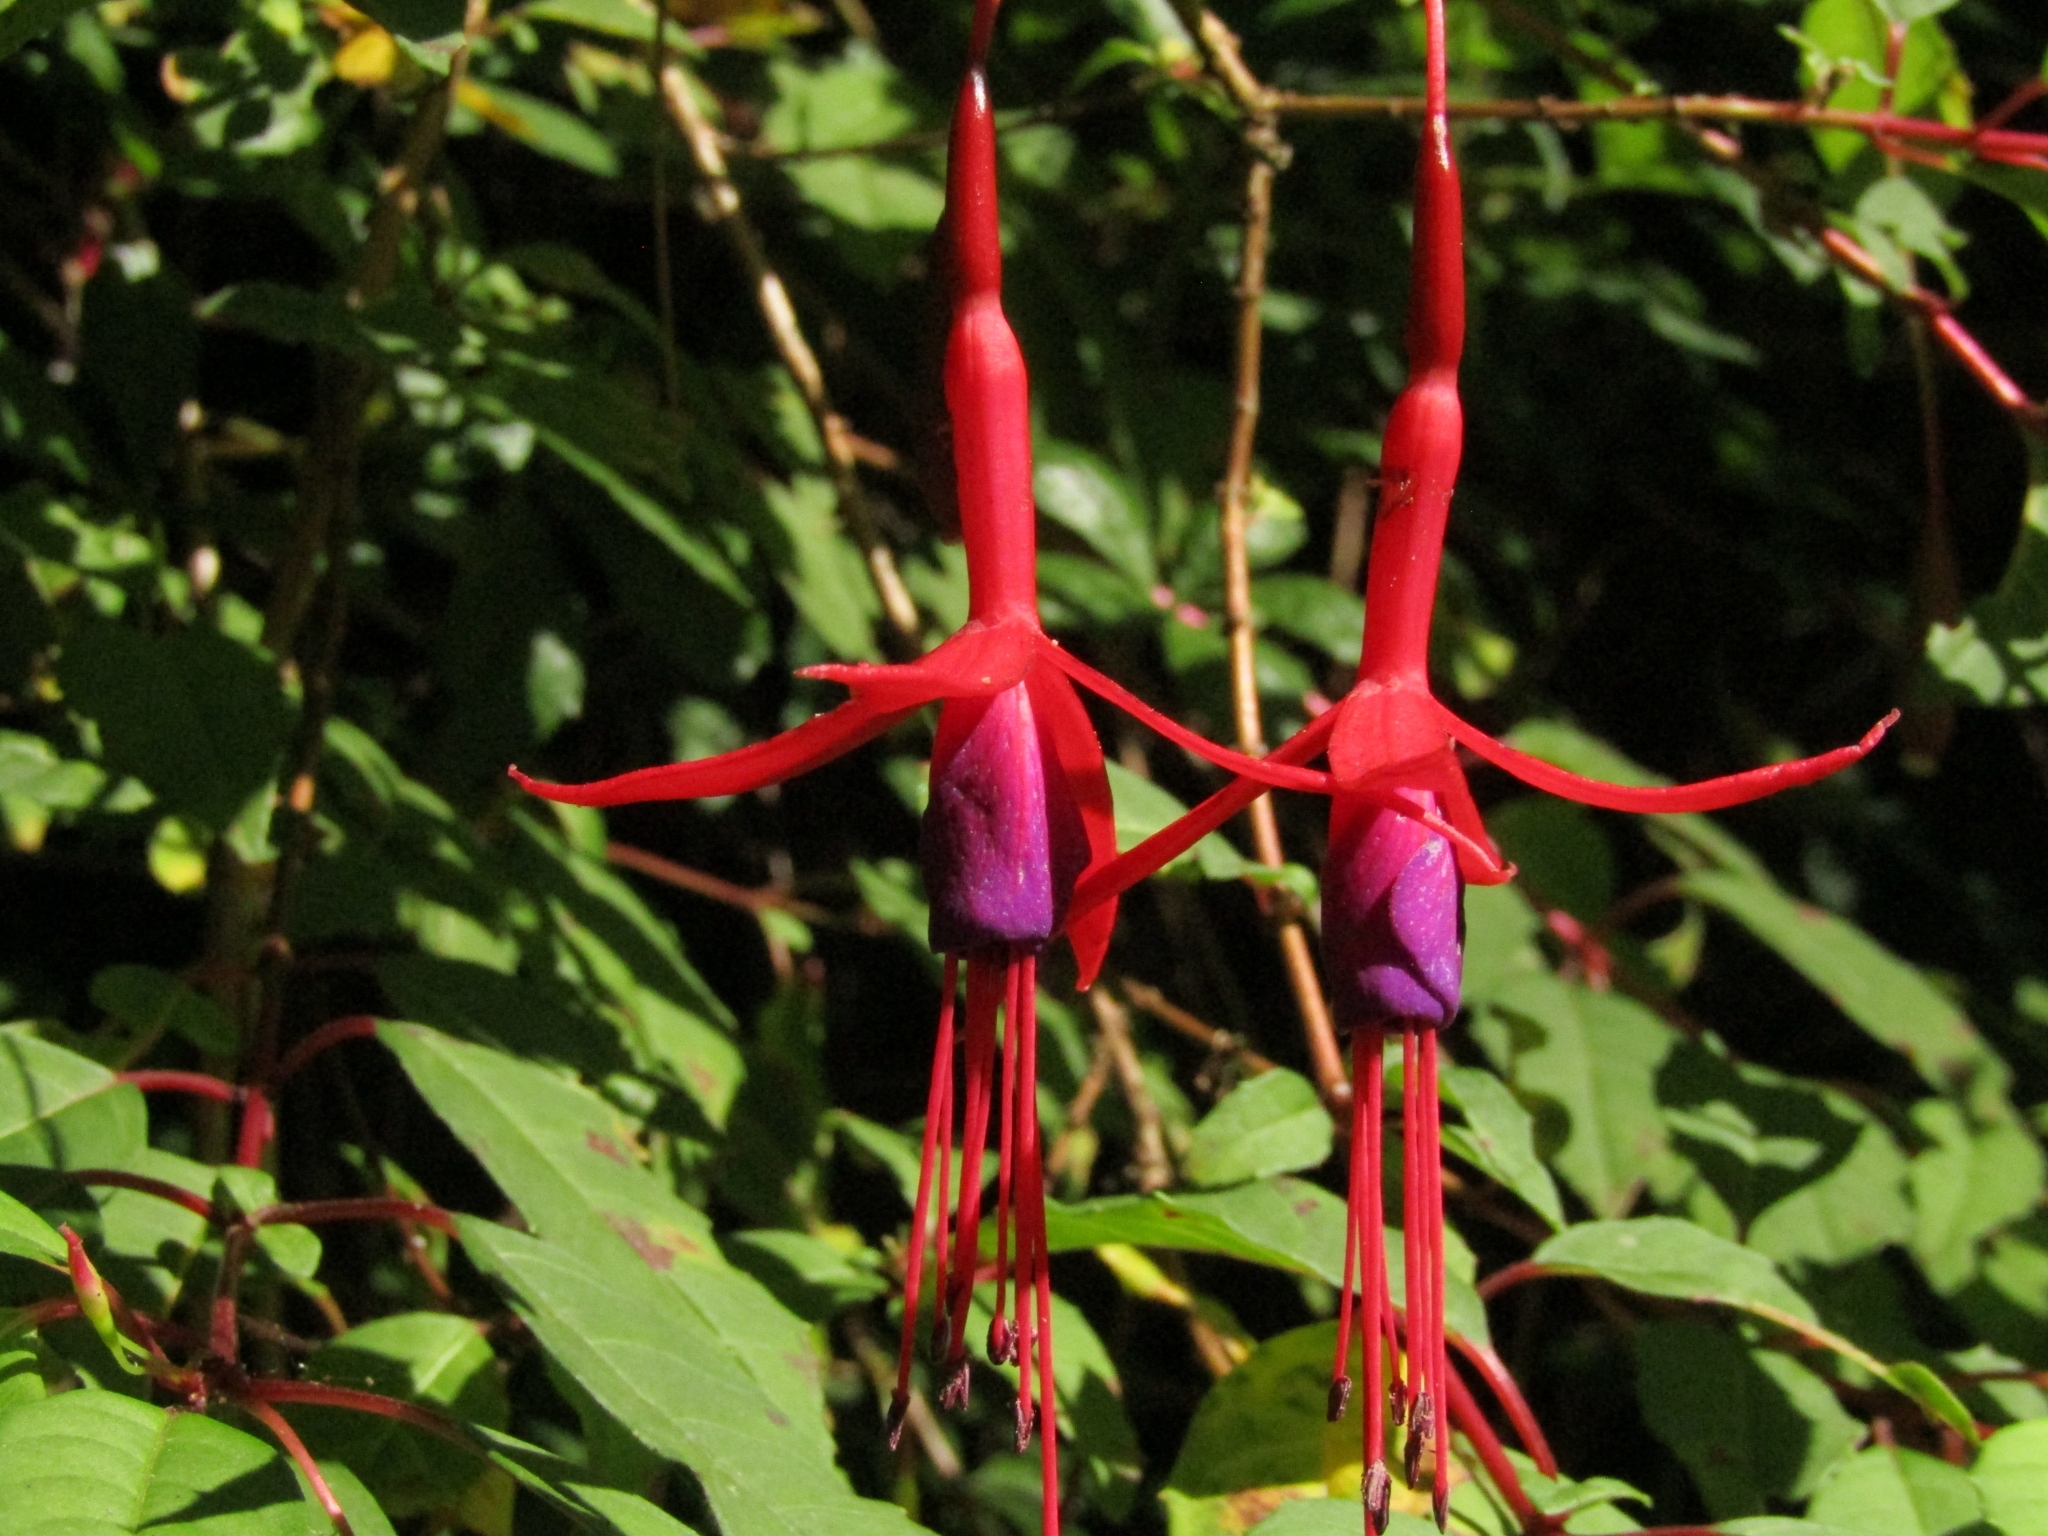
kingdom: Plantae
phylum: Tracheophyta
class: Magnoliopsida
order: Myrtales
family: Onagraceae
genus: Fuchsia
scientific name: Fuchsia magellanica
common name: Hardy fuchsia
